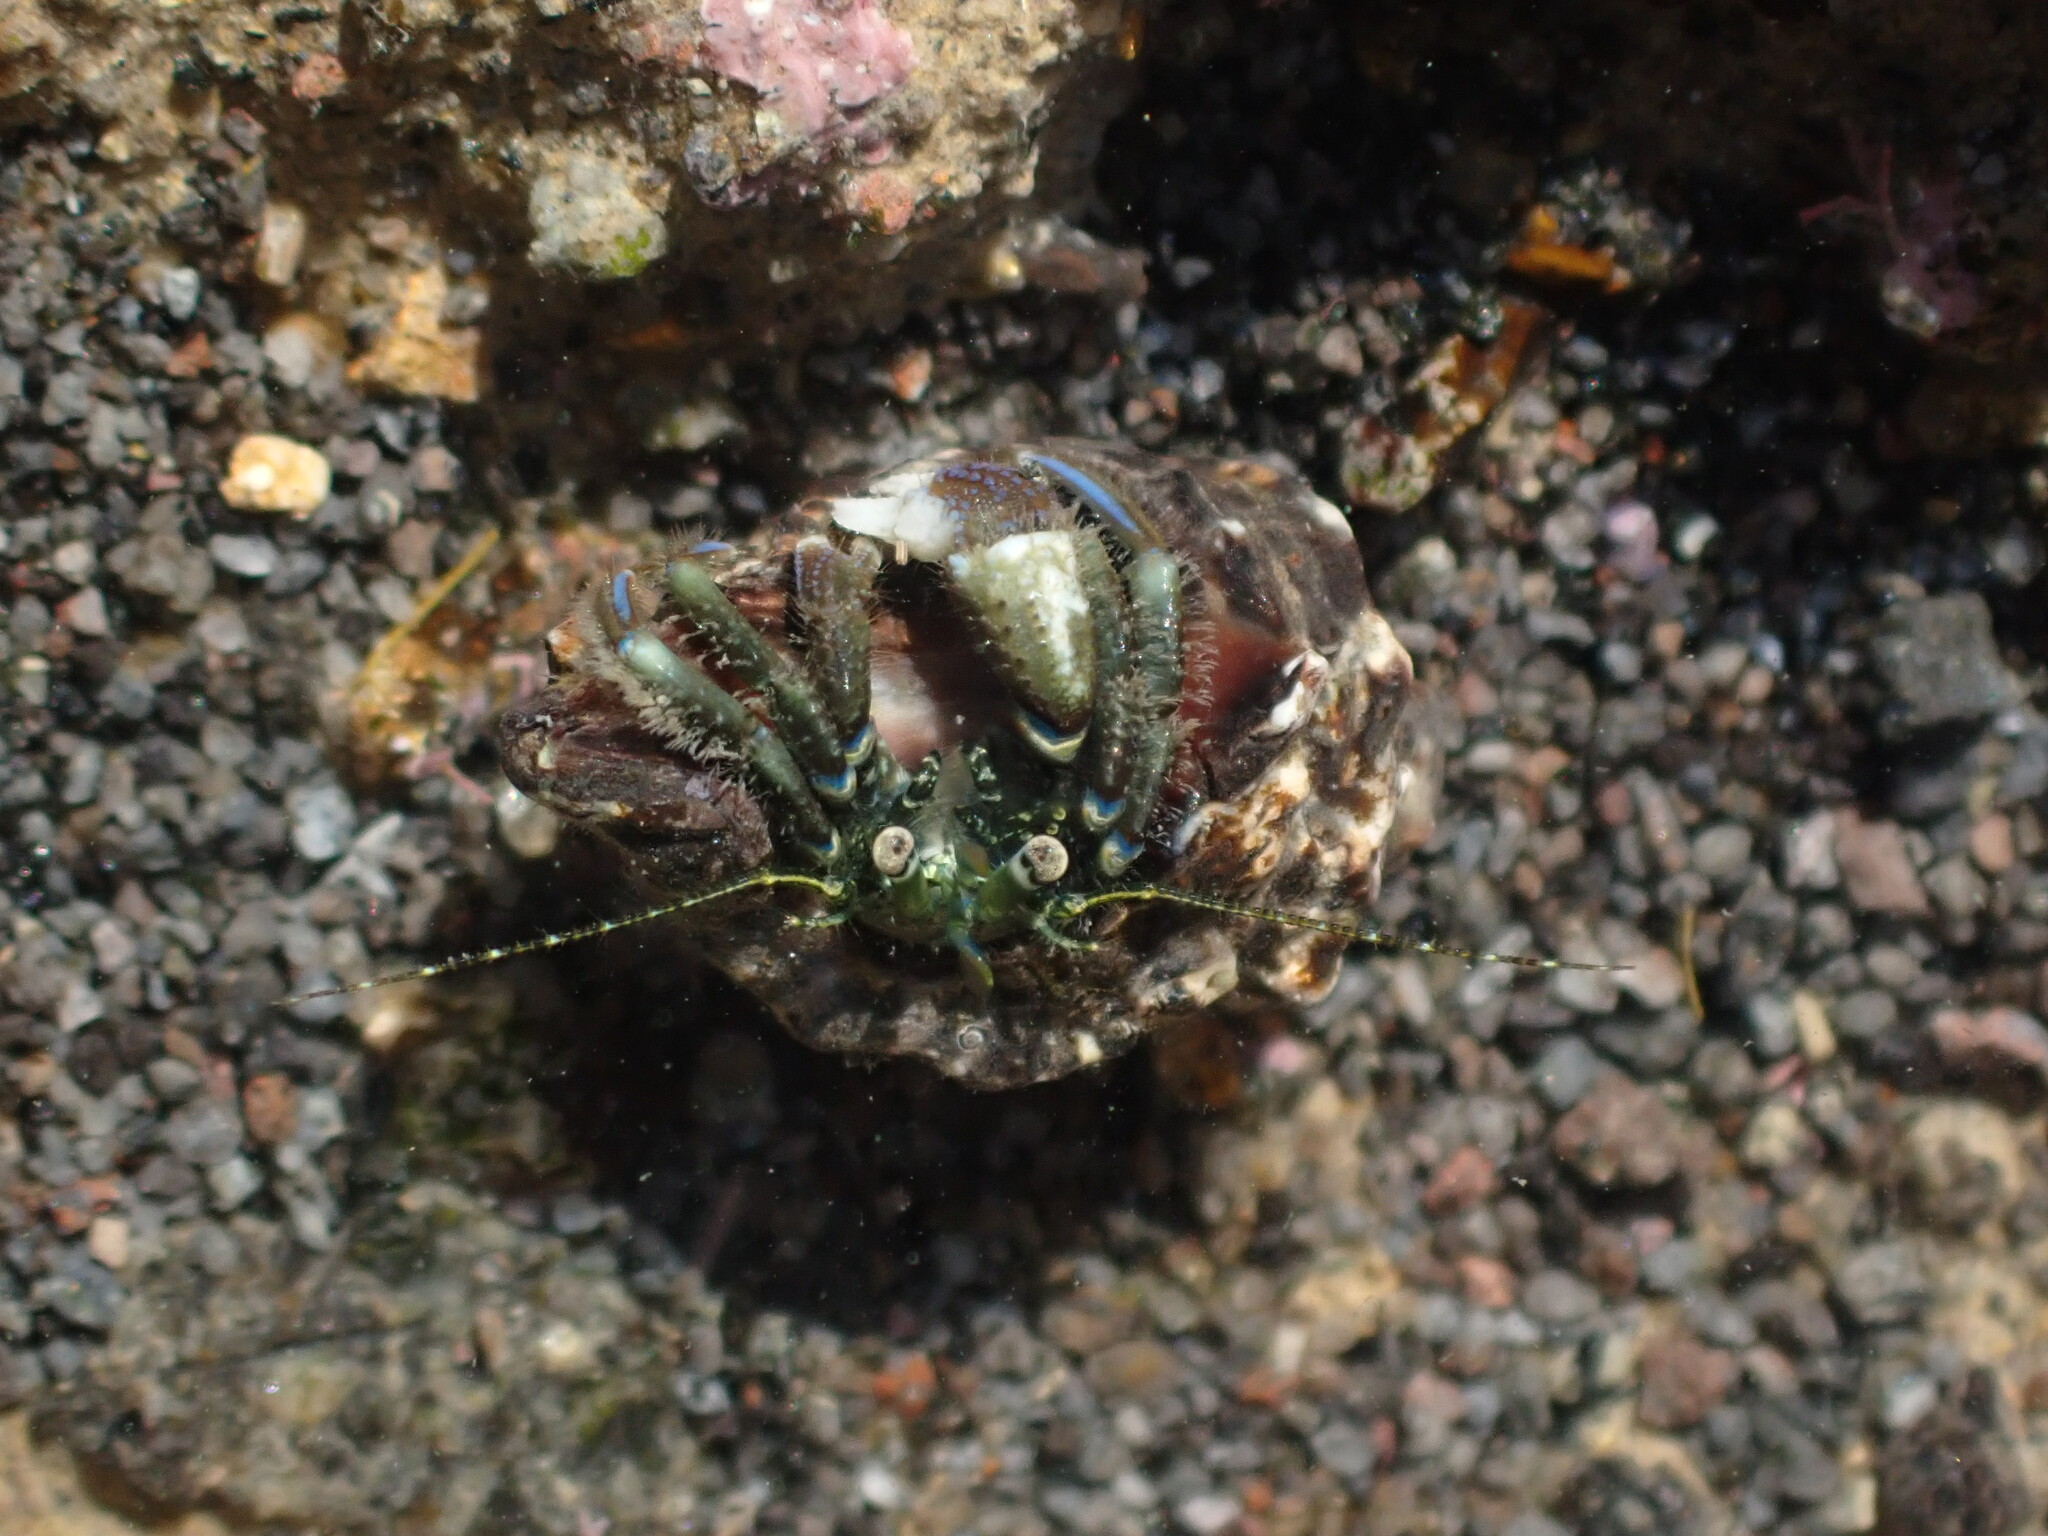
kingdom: Animalia
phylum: Arthropoda
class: Malacostraca
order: Decapoda
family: Paguridae
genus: Pagurus
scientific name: Pagurus novizealandiae
